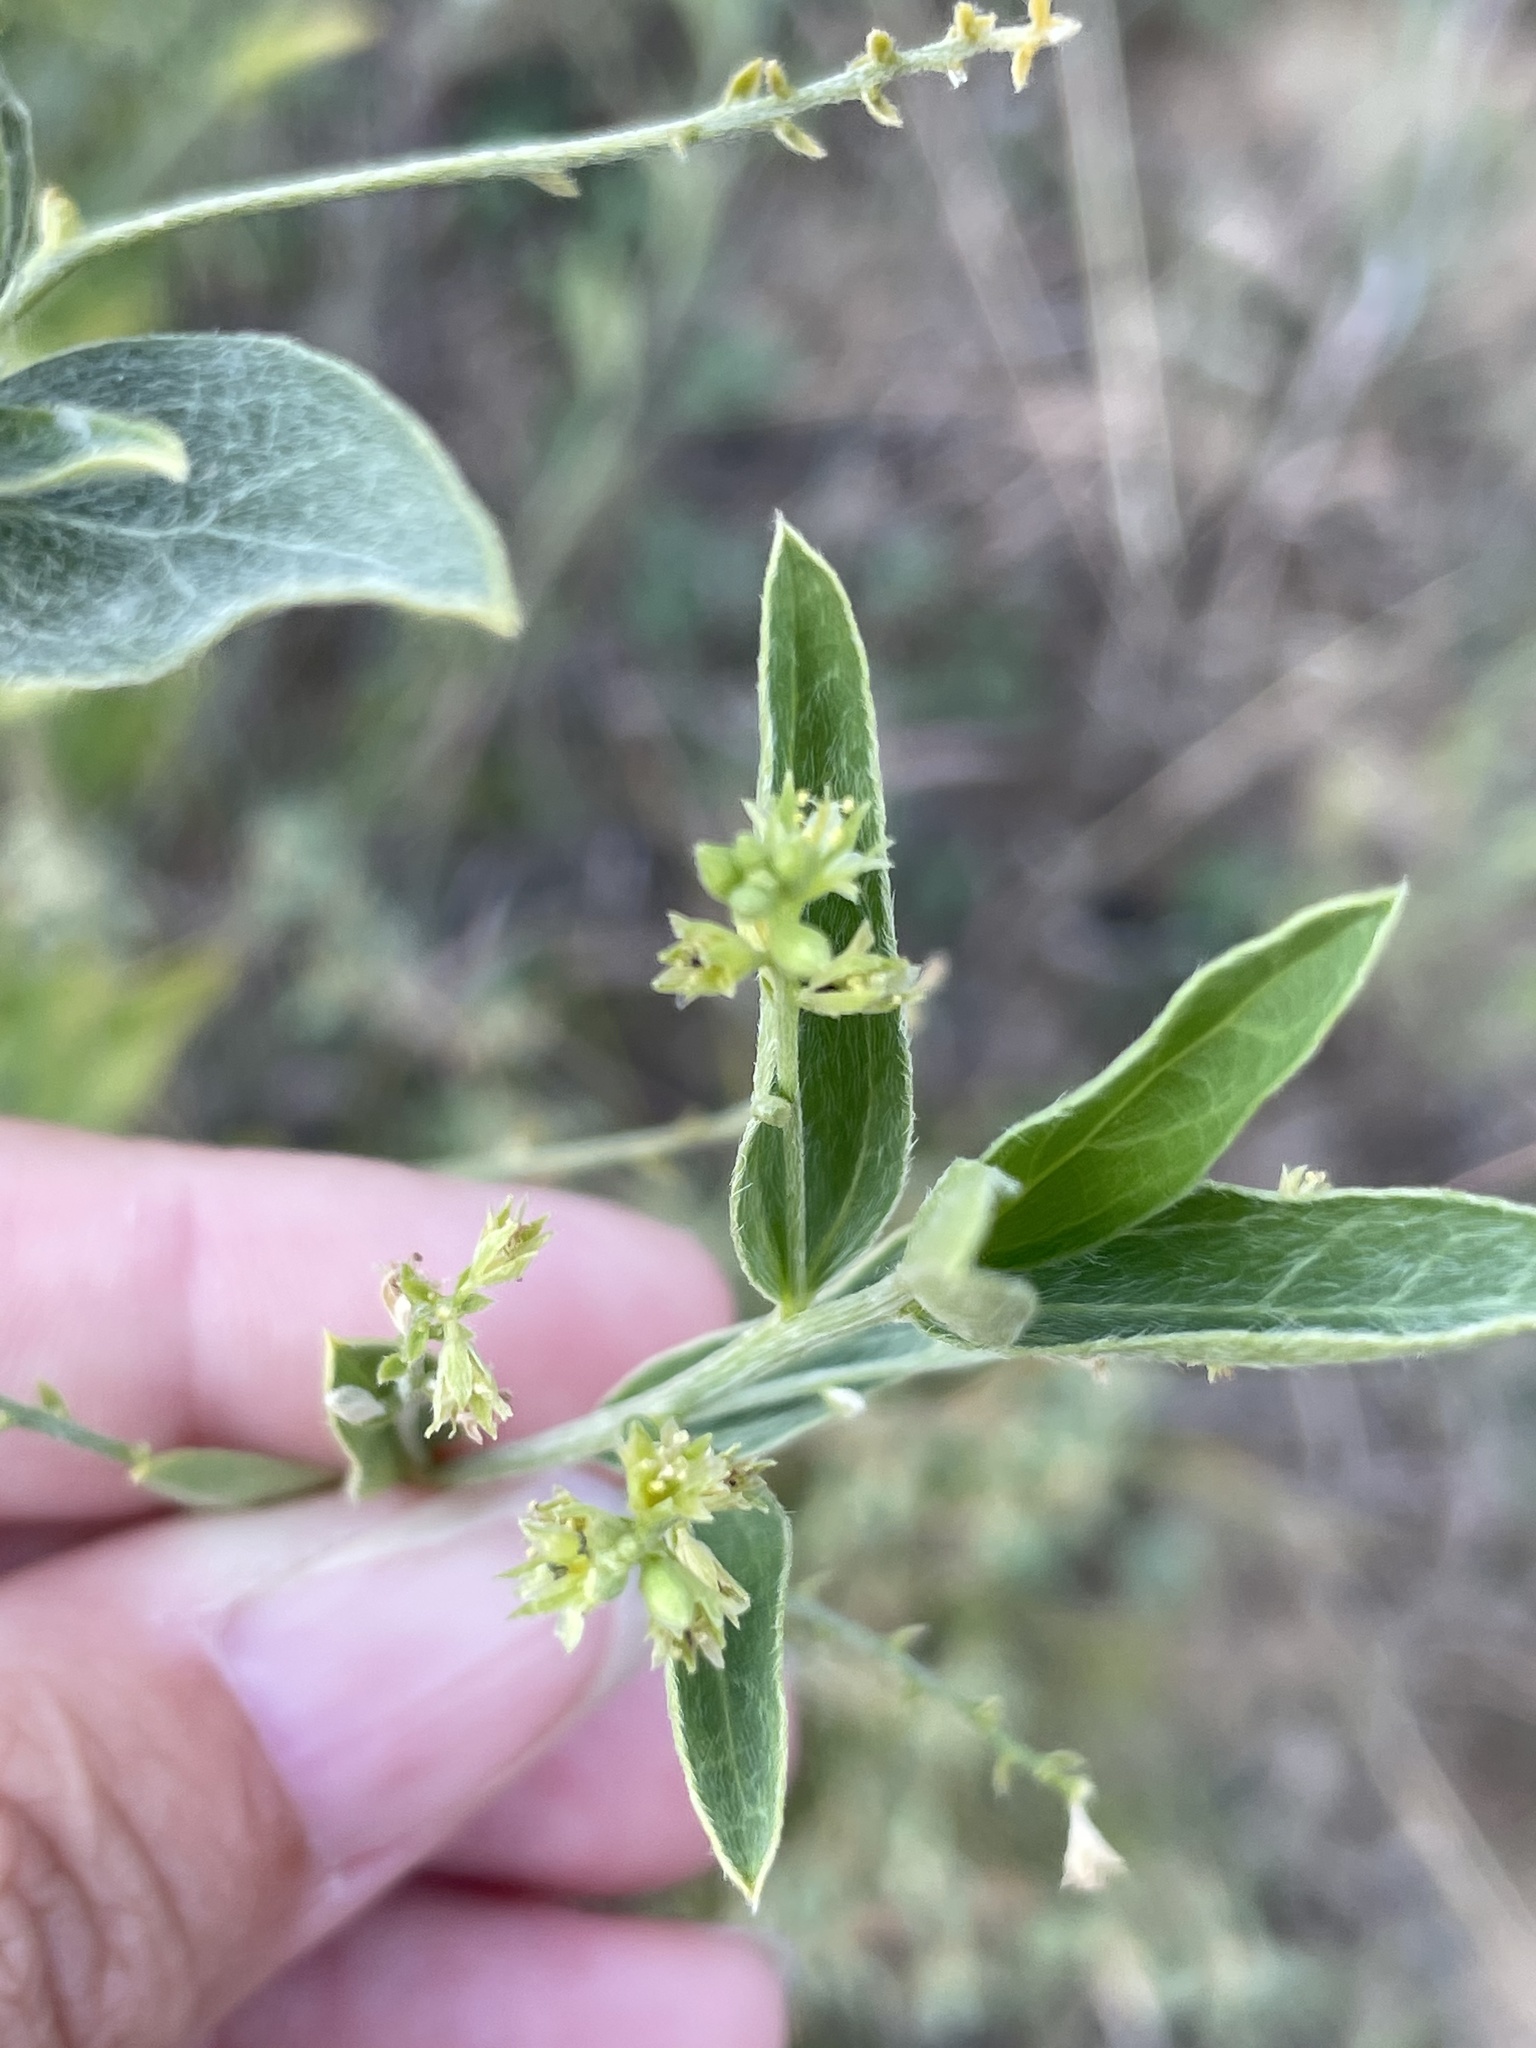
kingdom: Plantae
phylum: Tracheophyta
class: Magnoliopsida
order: Malpighiales
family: Euphorbiaceae
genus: Ditaxis
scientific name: Ditaxis mercurialina
